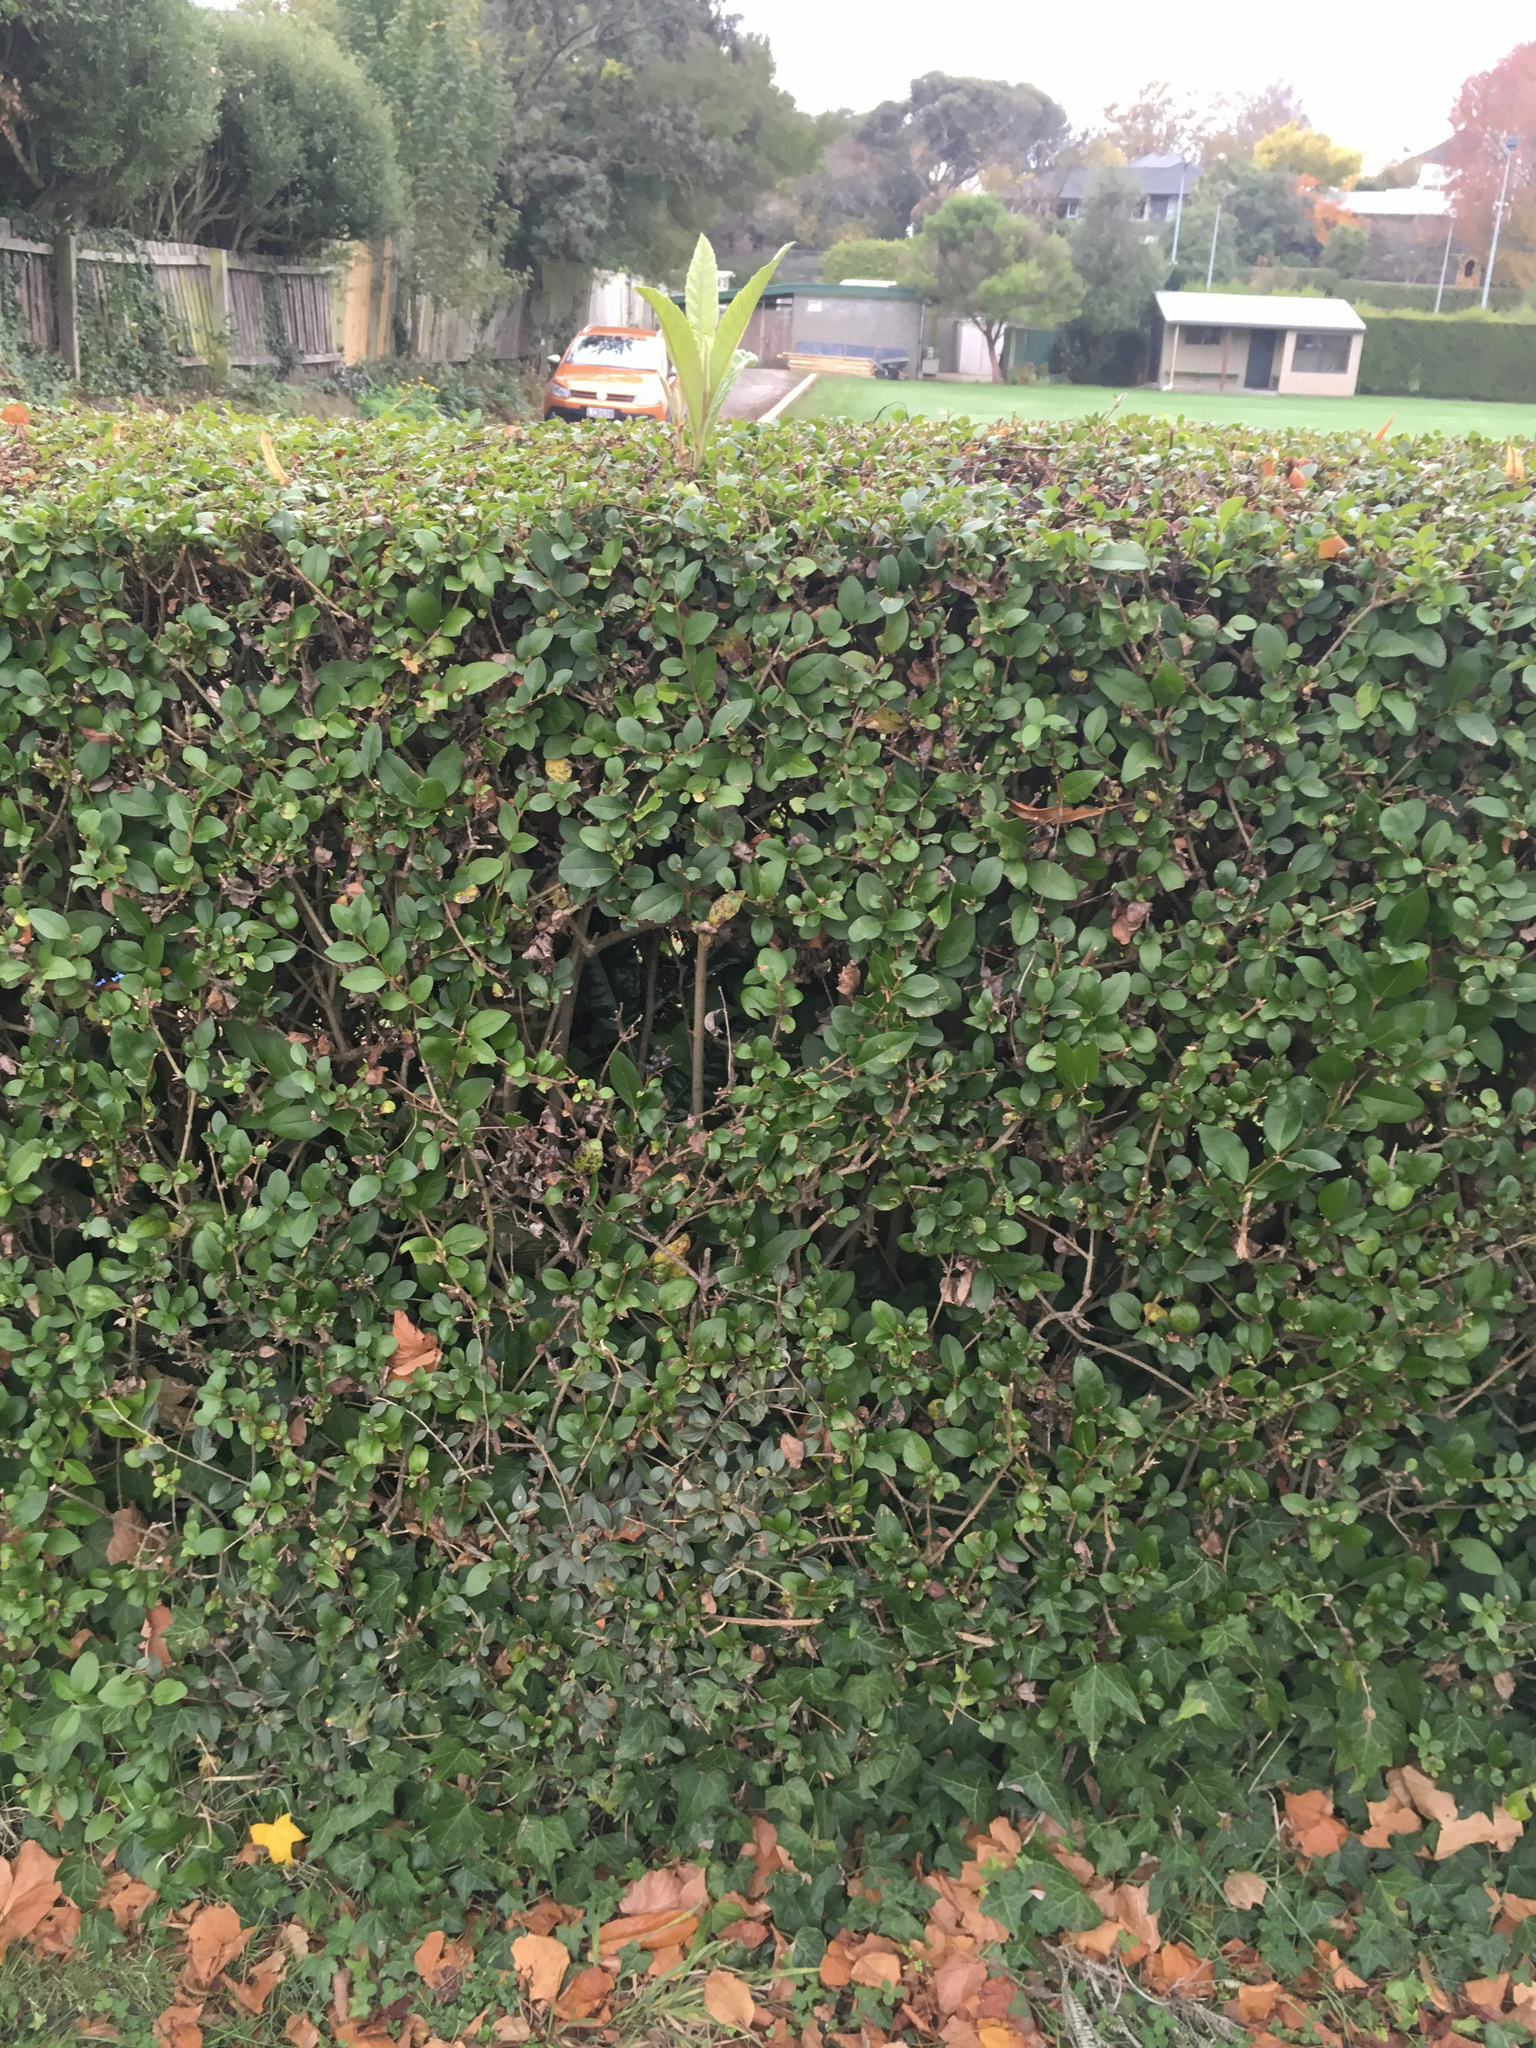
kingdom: Plantae
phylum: Tracheophyta
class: Magnoliopsida
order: Rosales
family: Rosaceae
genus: Rhaphiolepis
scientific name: Rhaphiolepis bibas
